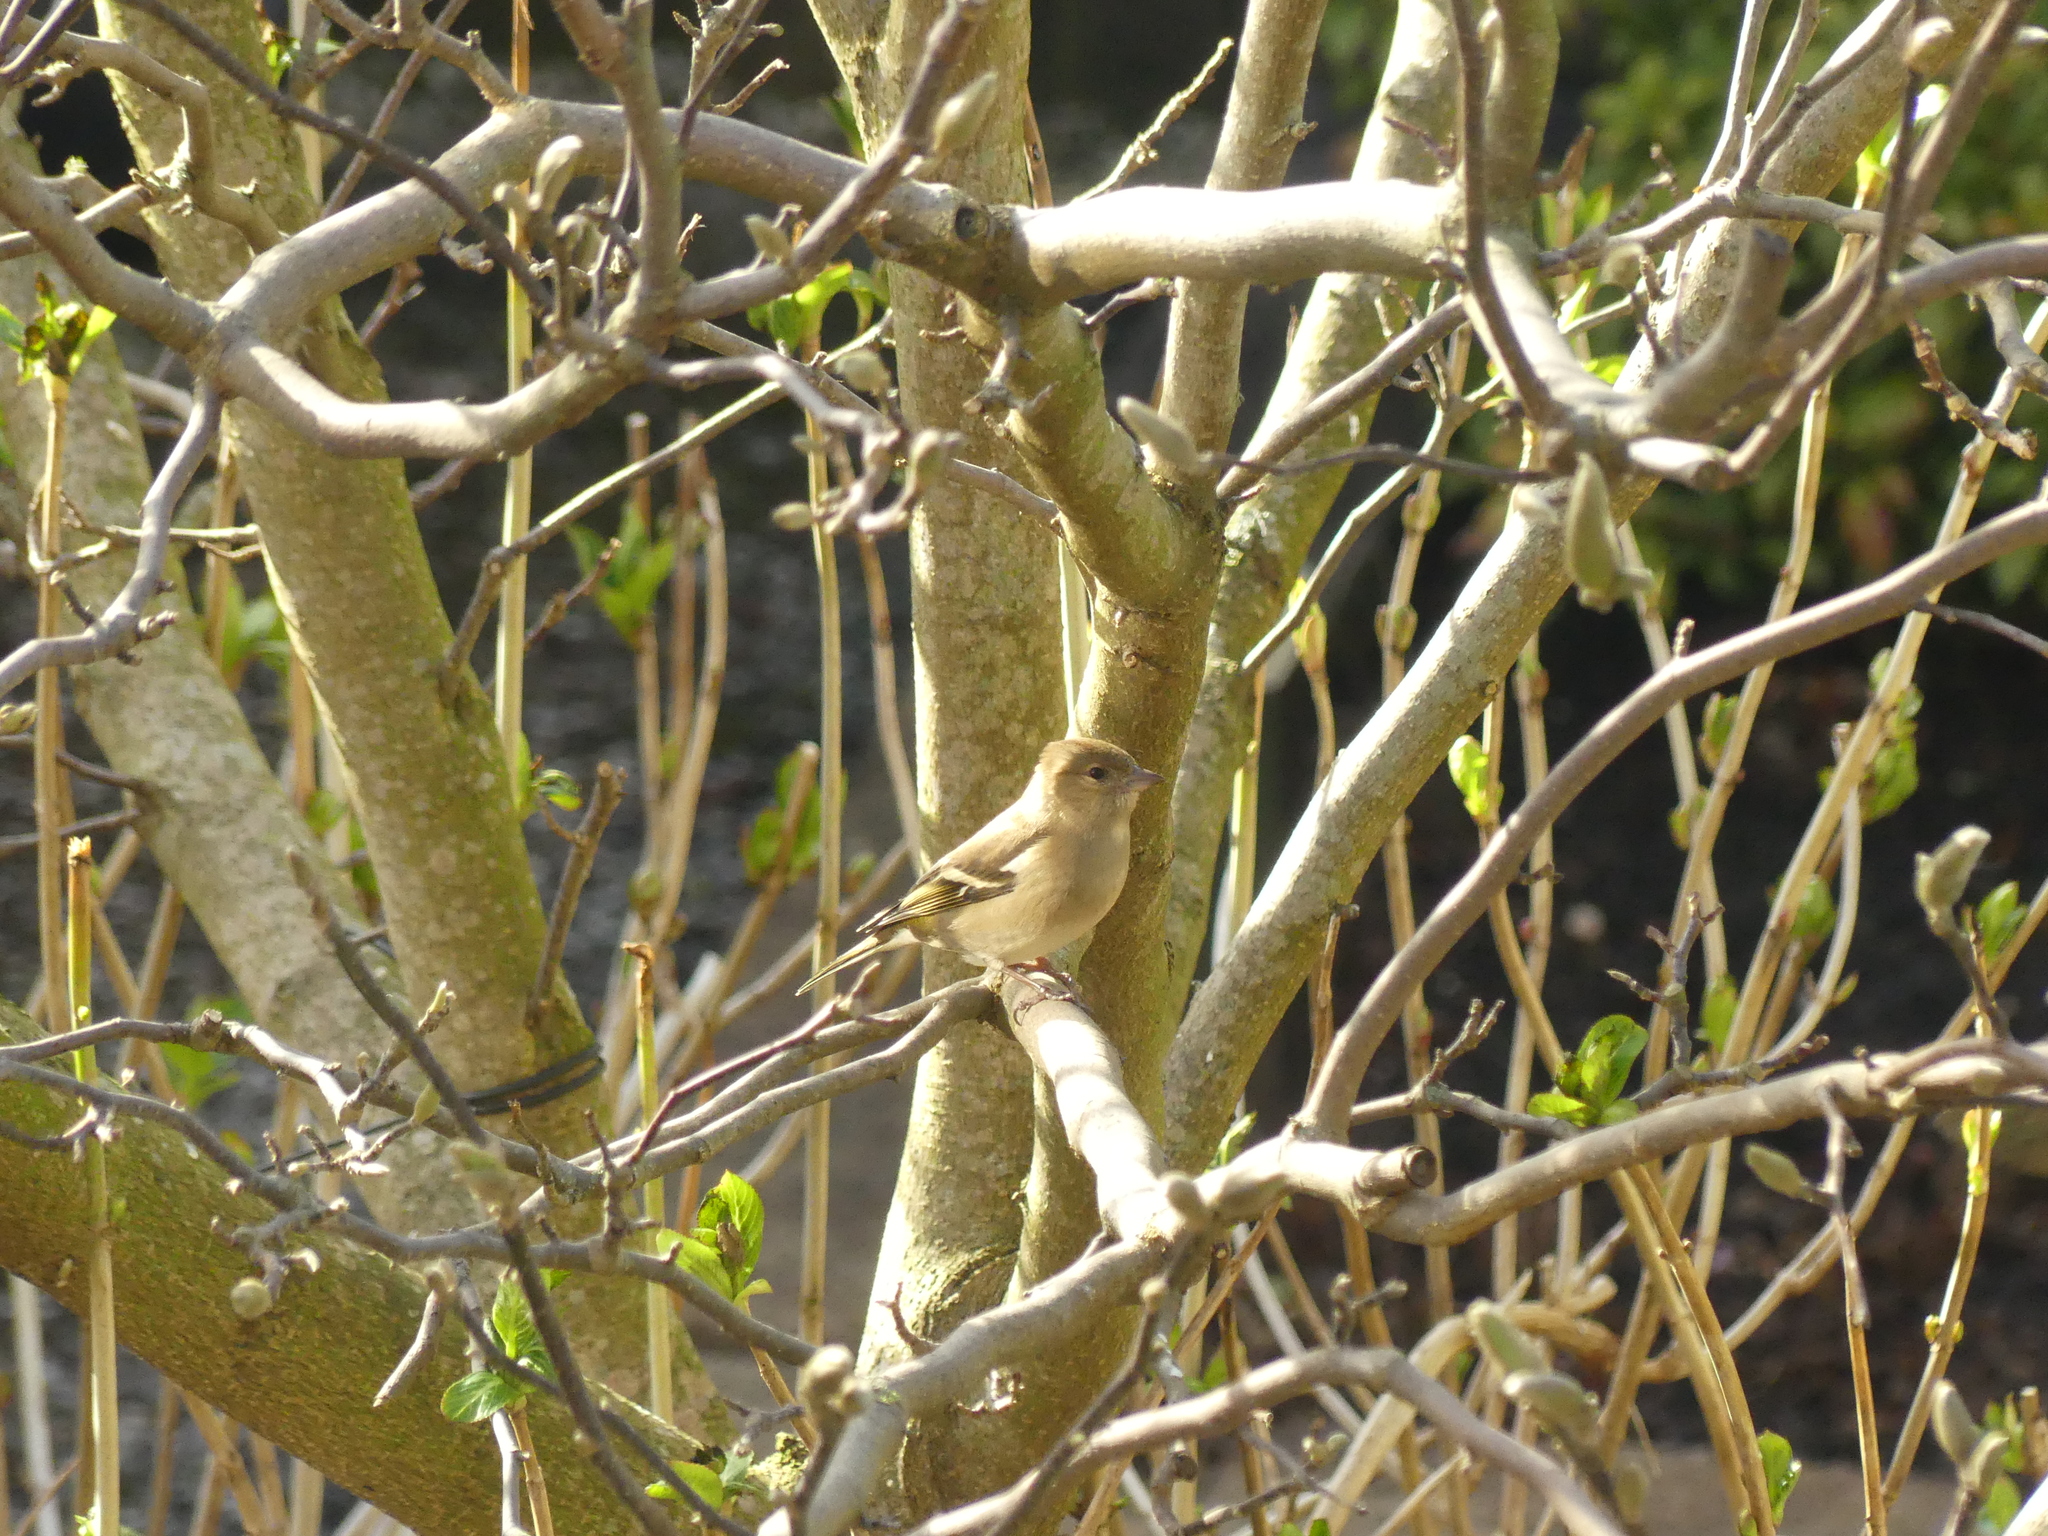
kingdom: Animalia
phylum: Chordata
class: Aves
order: Passeriformes
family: Fringillidae
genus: Fringilla
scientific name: Fringilla coelebs
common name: Common chaffinch
